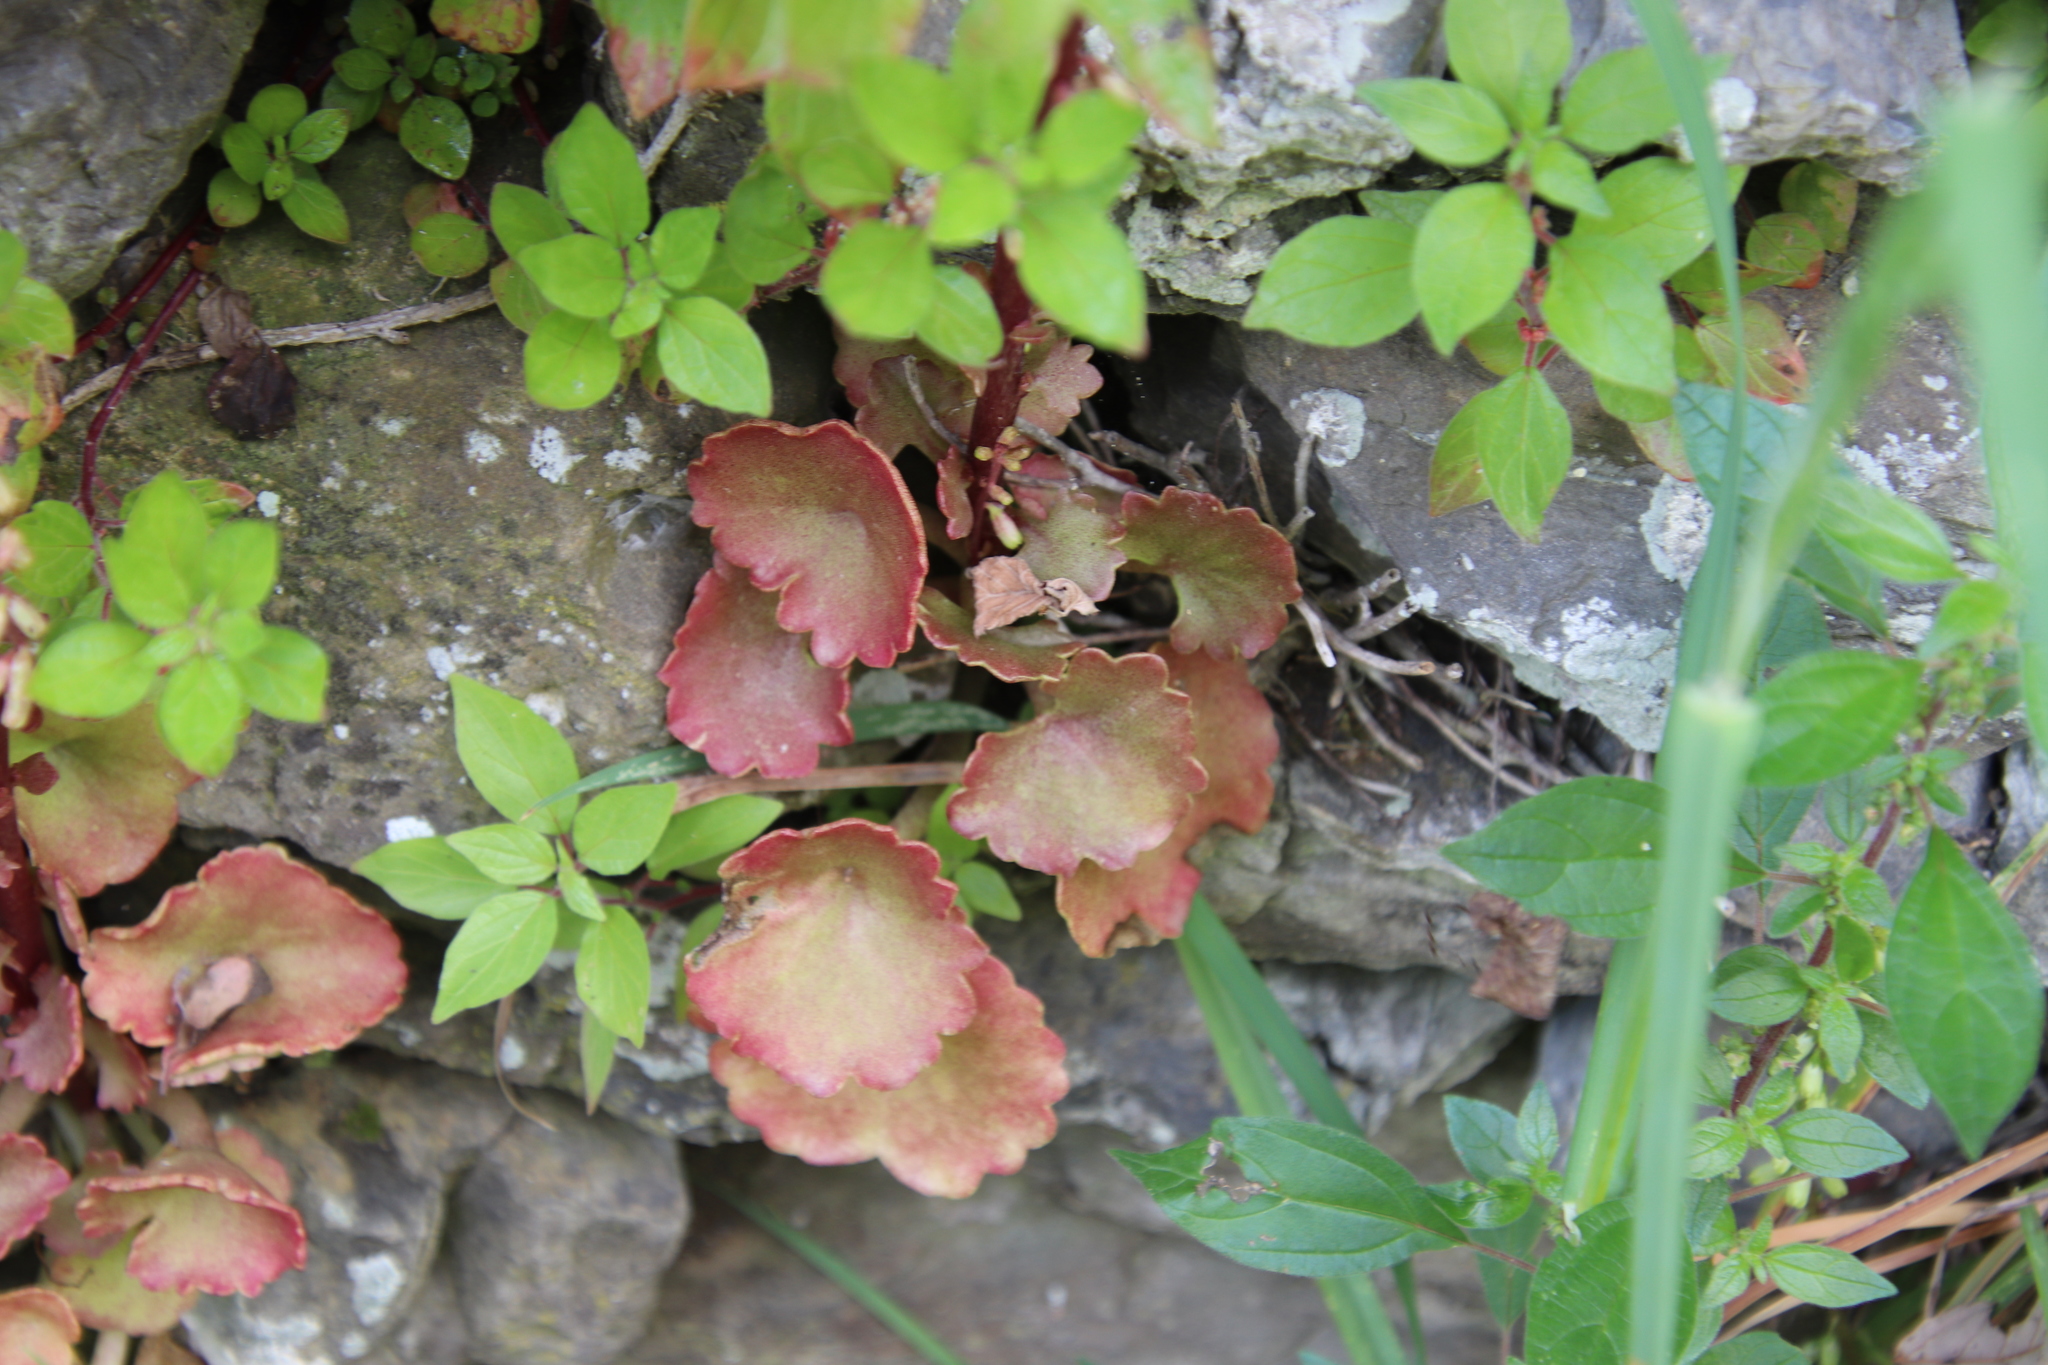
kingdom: Plantae
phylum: Tracheophyta
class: Magnoliopsida
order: Saxifragales
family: Crassulaceae
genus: Umbilicus
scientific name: Umbilicus rupestris
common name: Navelwort
